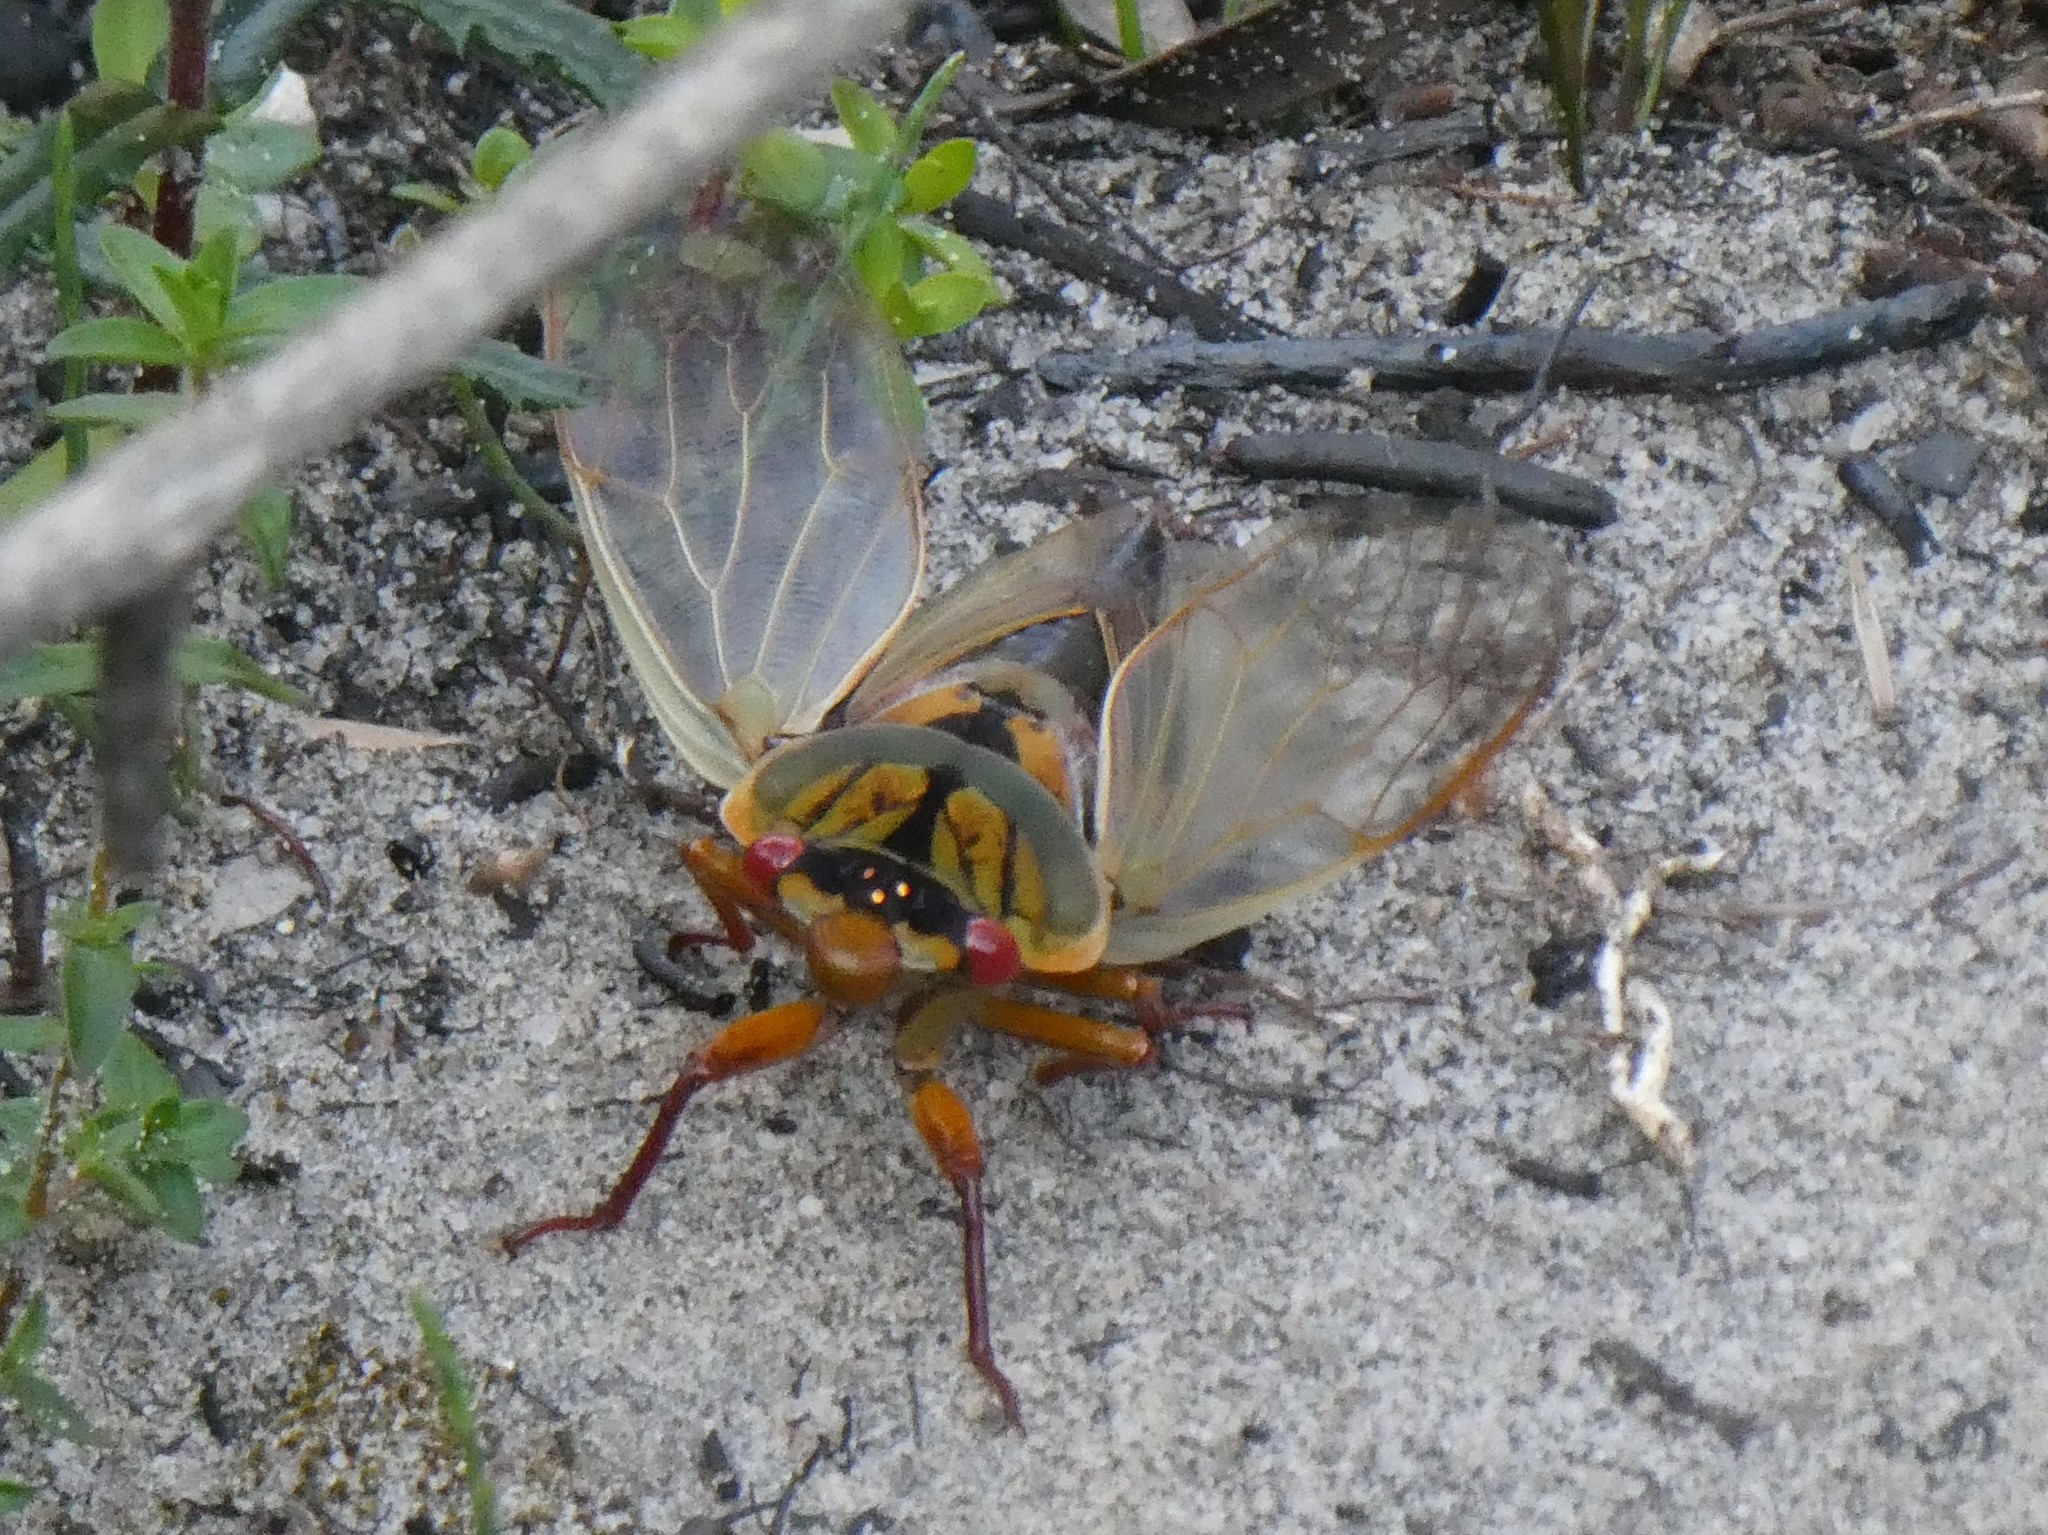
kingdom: Animalia
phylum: Arthropoda
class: Insecta
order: Hemiptera
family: Cicadidae
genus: Cyclochila
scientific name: Cyclochila australasiae
